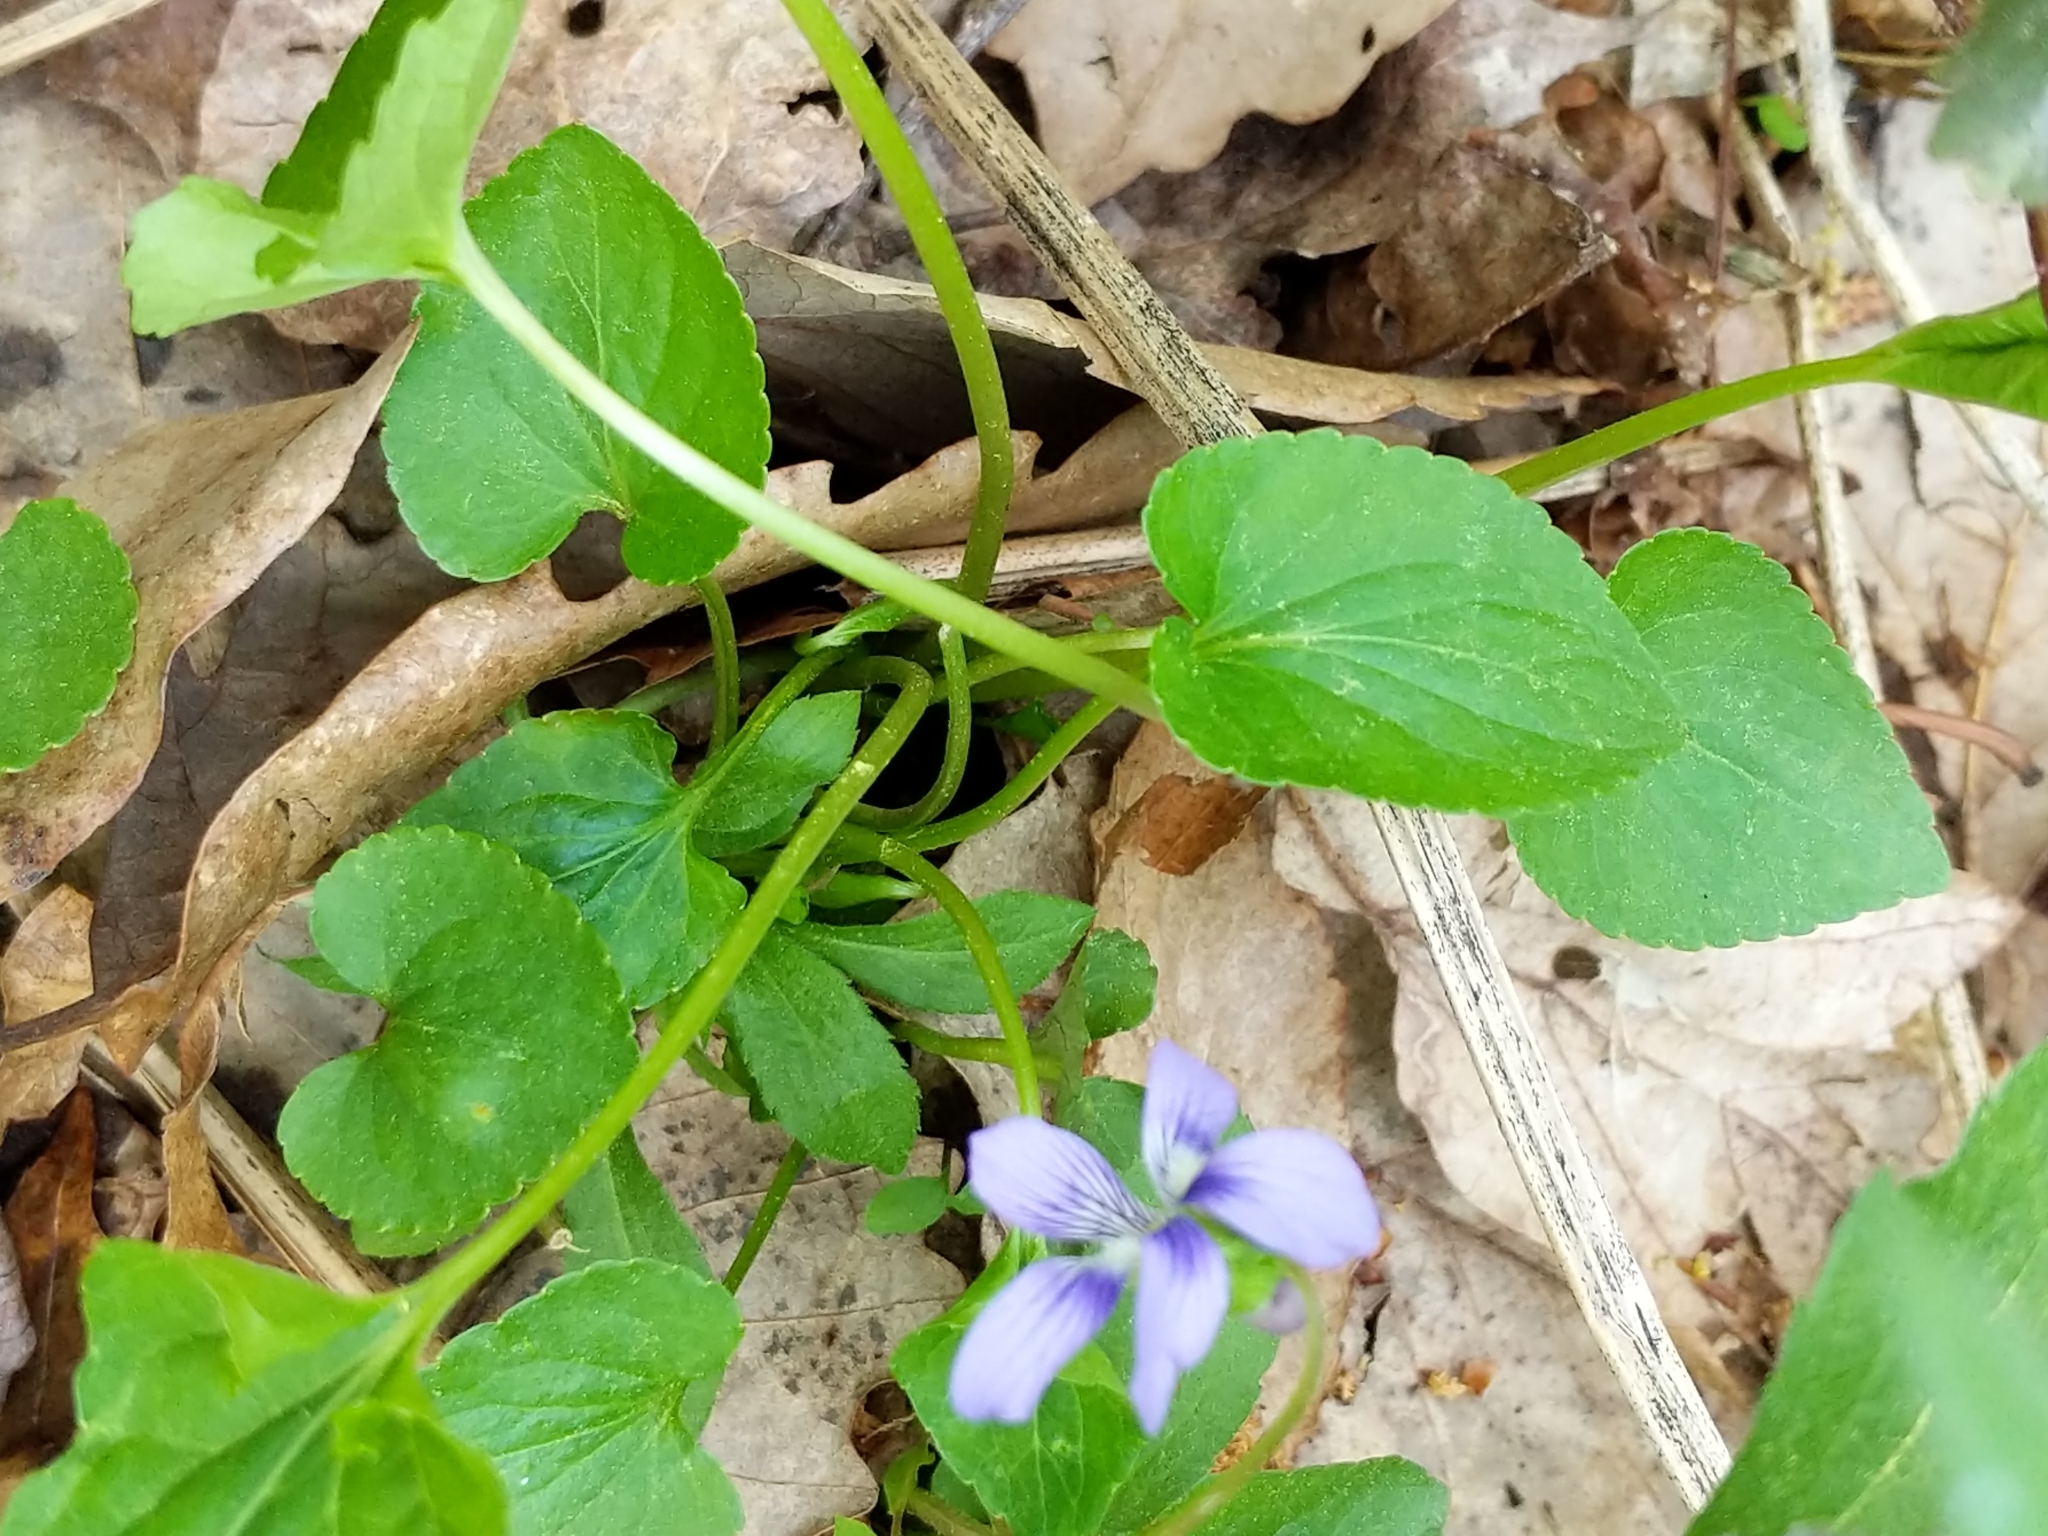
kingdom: Plantae
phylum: Tracheophyta
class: Magnoliopsida
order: Malpighiales
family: Violaceae
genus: Viola
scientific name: Viola cucullata
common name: Marsh blue violet
